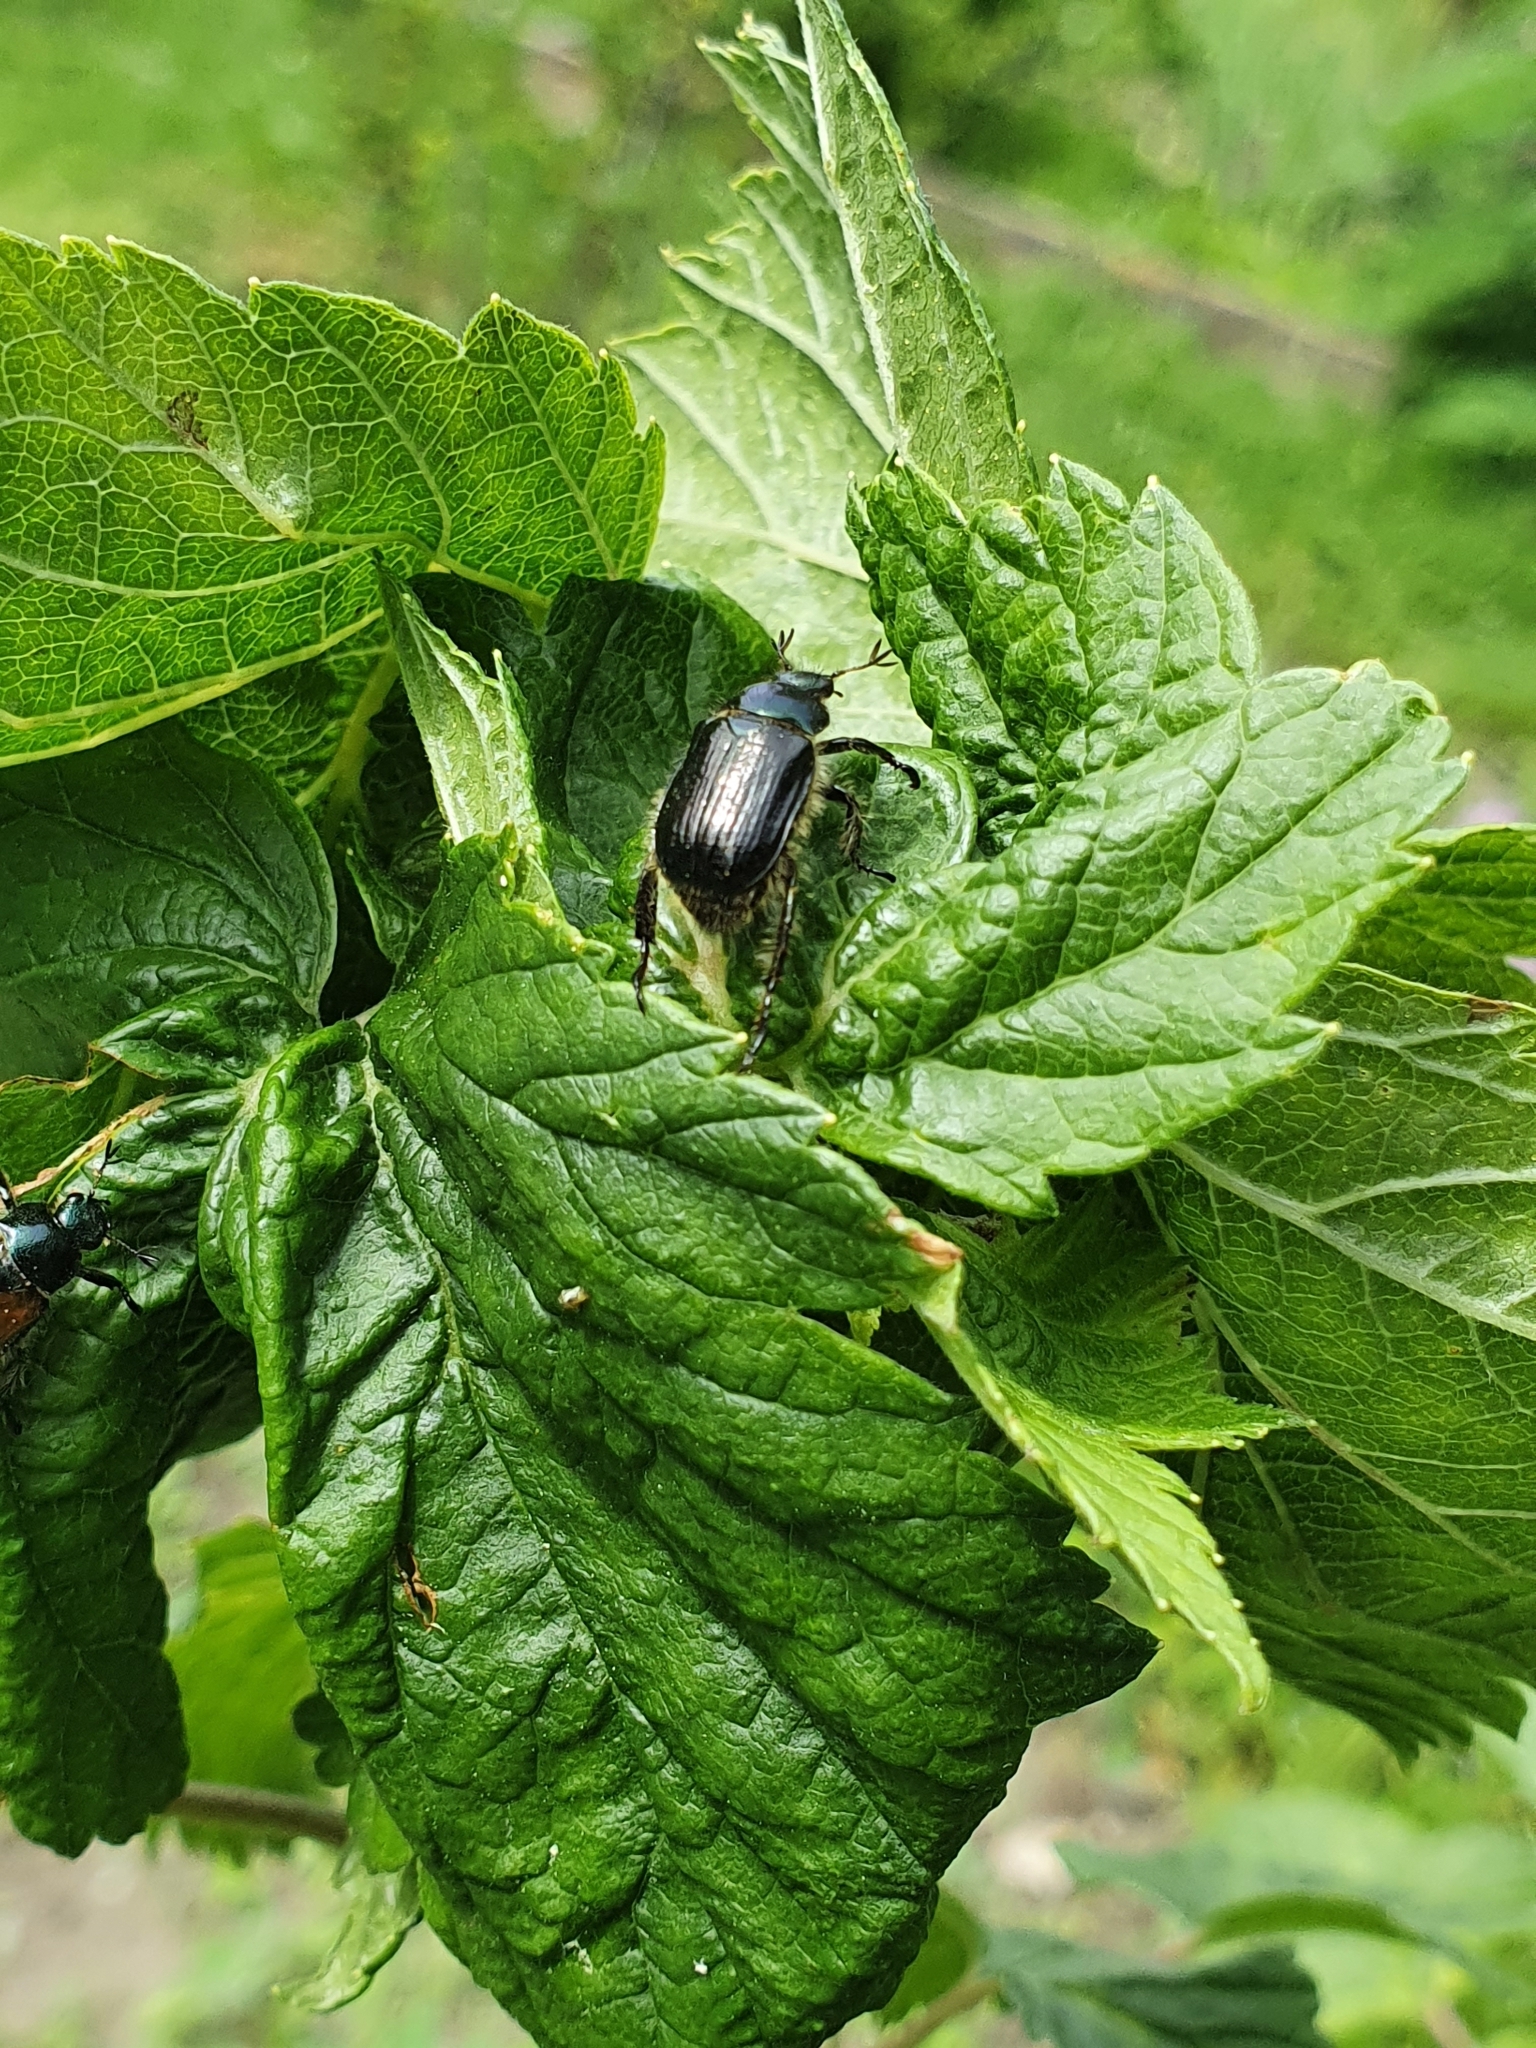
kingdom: Animalia
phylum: Arthropoda
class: Insecta
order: Coleoptera
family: Scarabaeidae
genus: Phyllopertha
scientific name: Phyllopertha horticola
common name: Garden chafer
